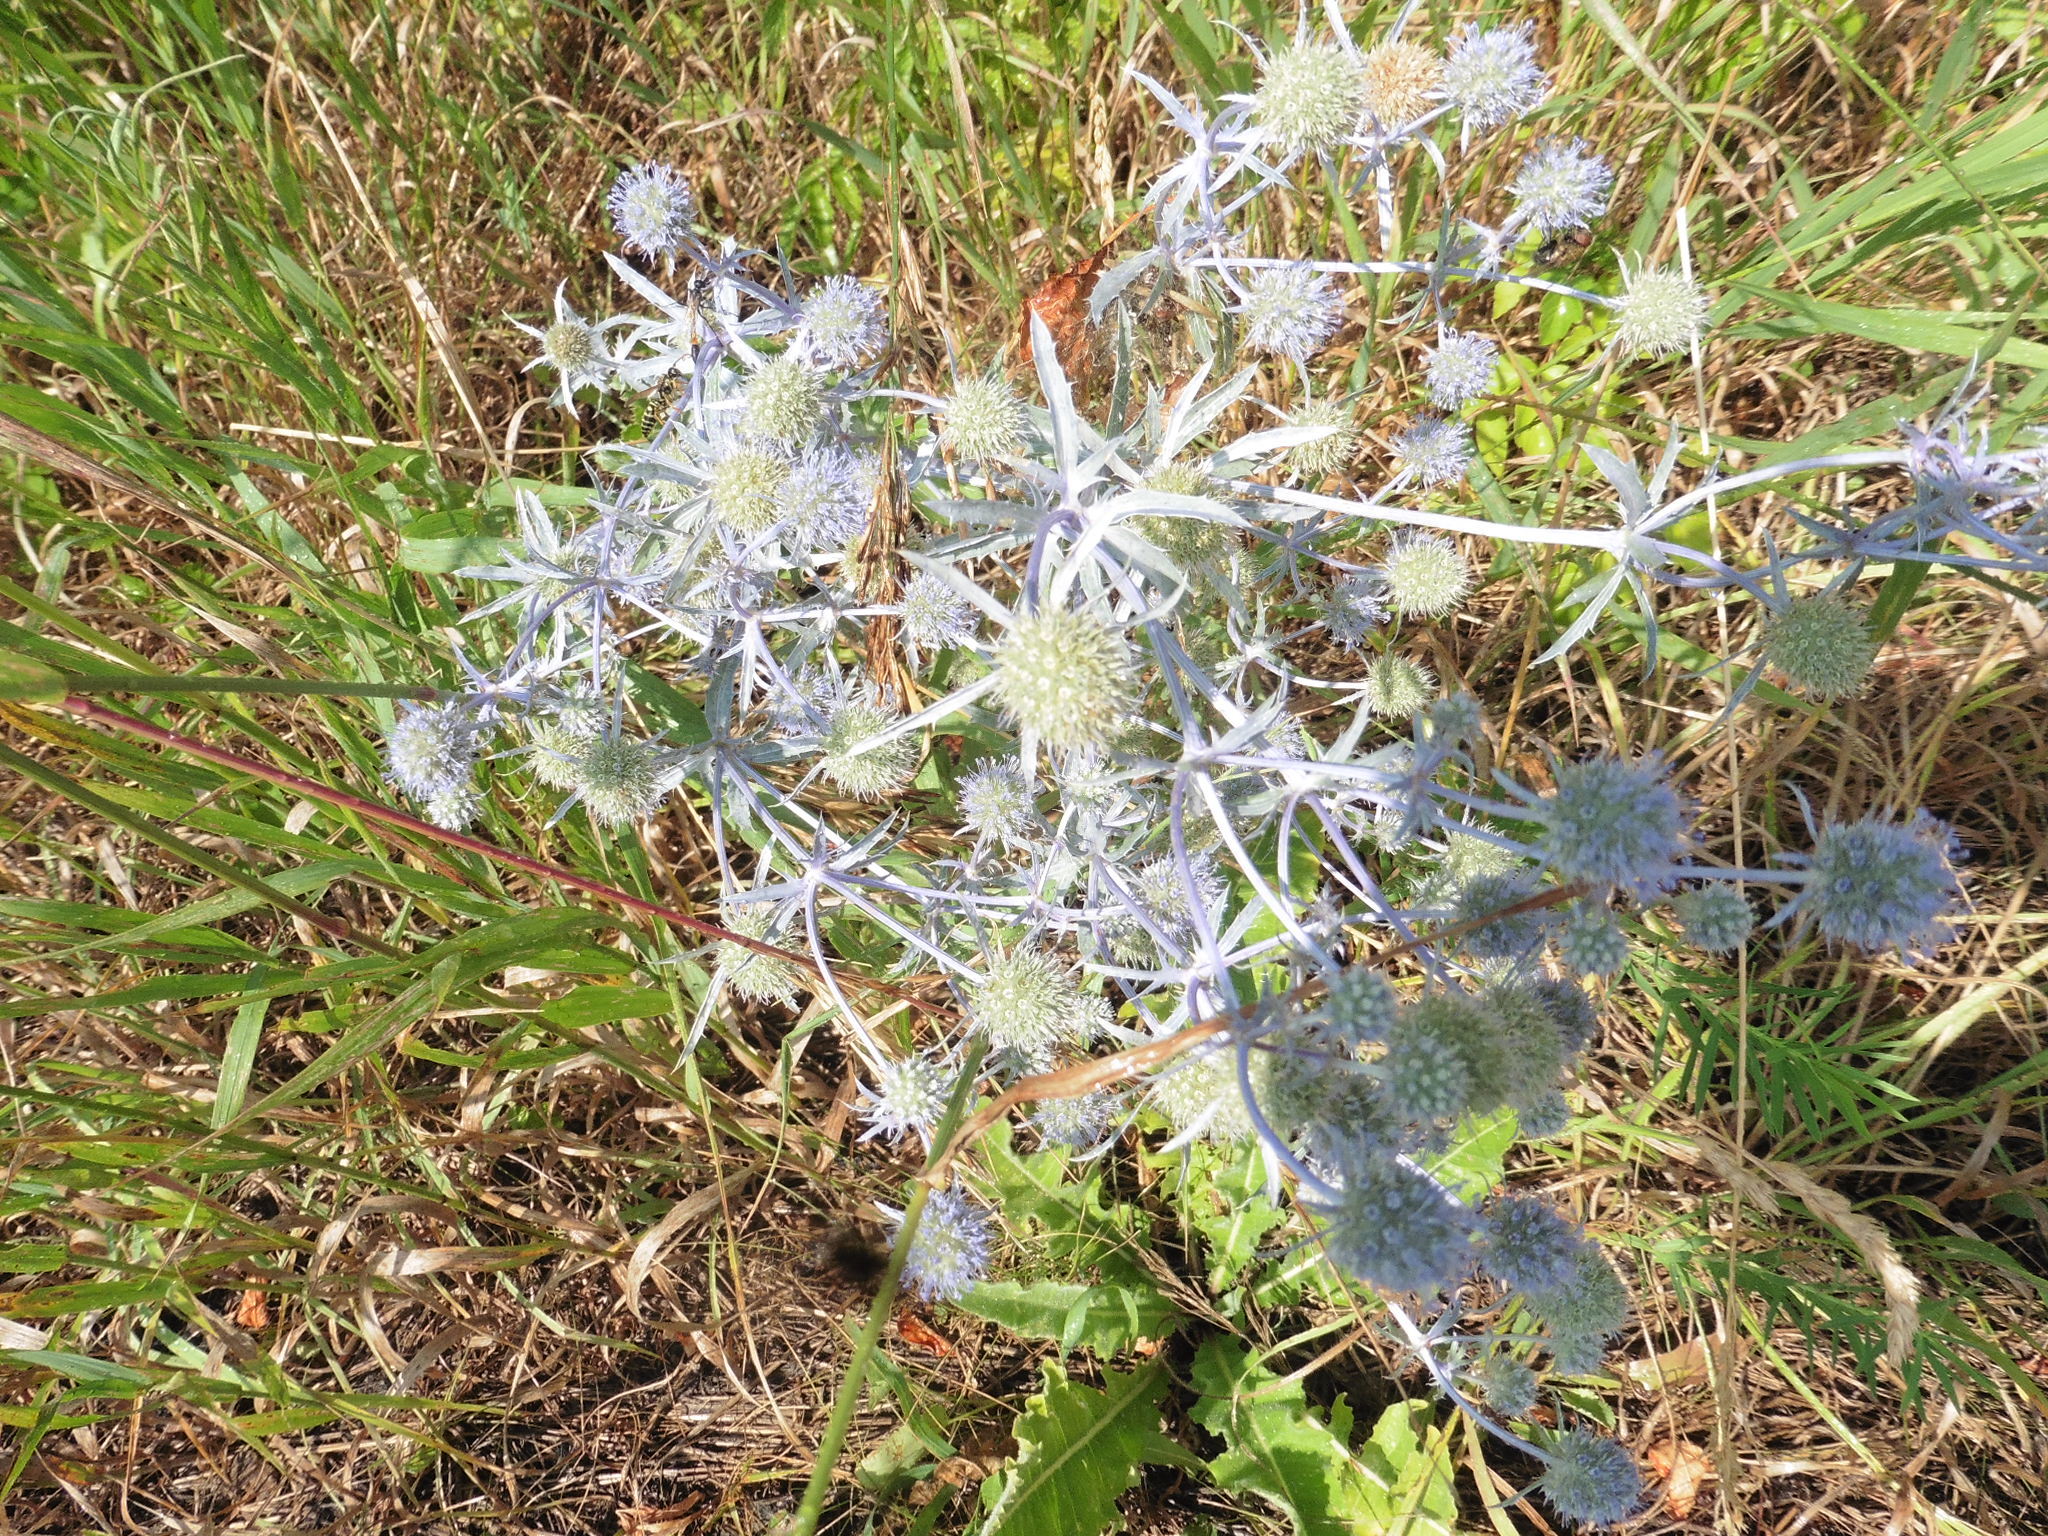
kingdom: Plantae
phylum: Tracheophyta
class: Magnoliopsida
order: Apiales
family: Apiaceae
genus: Eryngium
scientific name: Eryngium planum
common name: Blue eryngo
